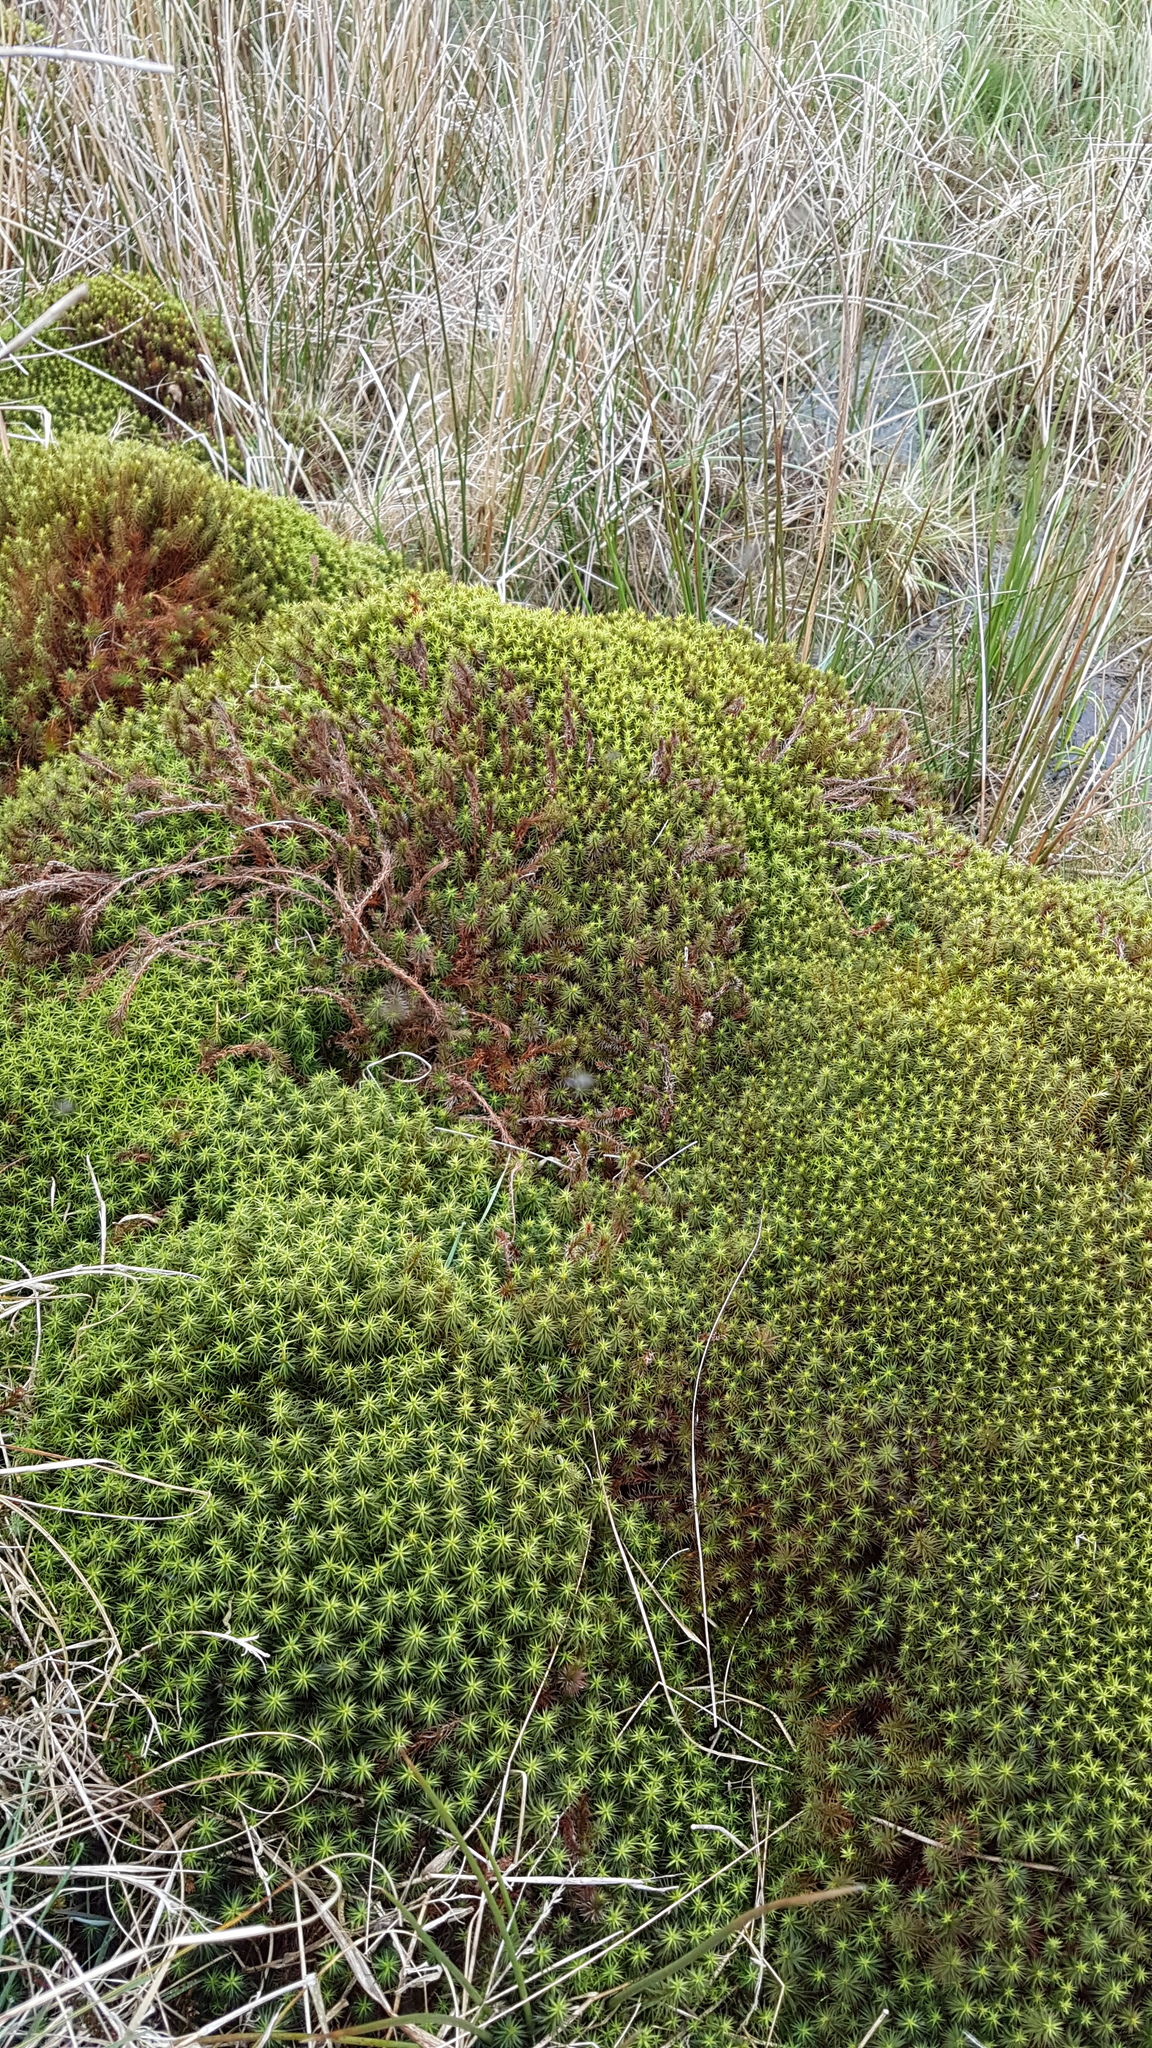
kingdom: Plantae
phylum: Bryophyta
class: Polytrichopsida
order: Polytrichales
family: Polytrichaceae
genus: Polytrichum
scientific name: Polytrichum commune
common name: Common haircap
